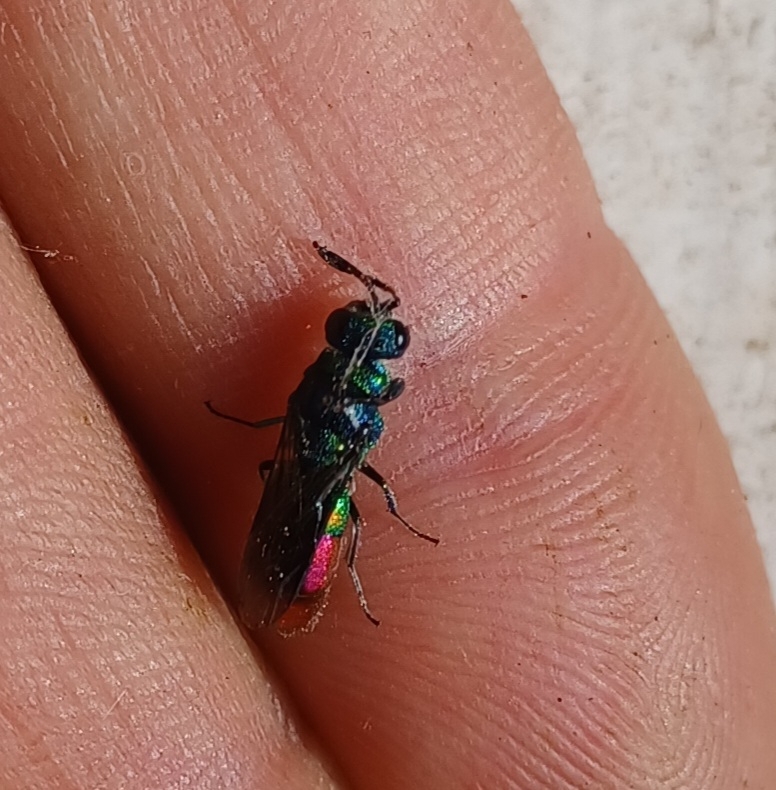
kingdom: Animalia
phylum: Arthropoda
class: Insecta
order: Hymenoptera
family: Chrysididae
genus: Chrysis
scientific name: Chrysis fulgida
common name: Shimmering ruby-tail
